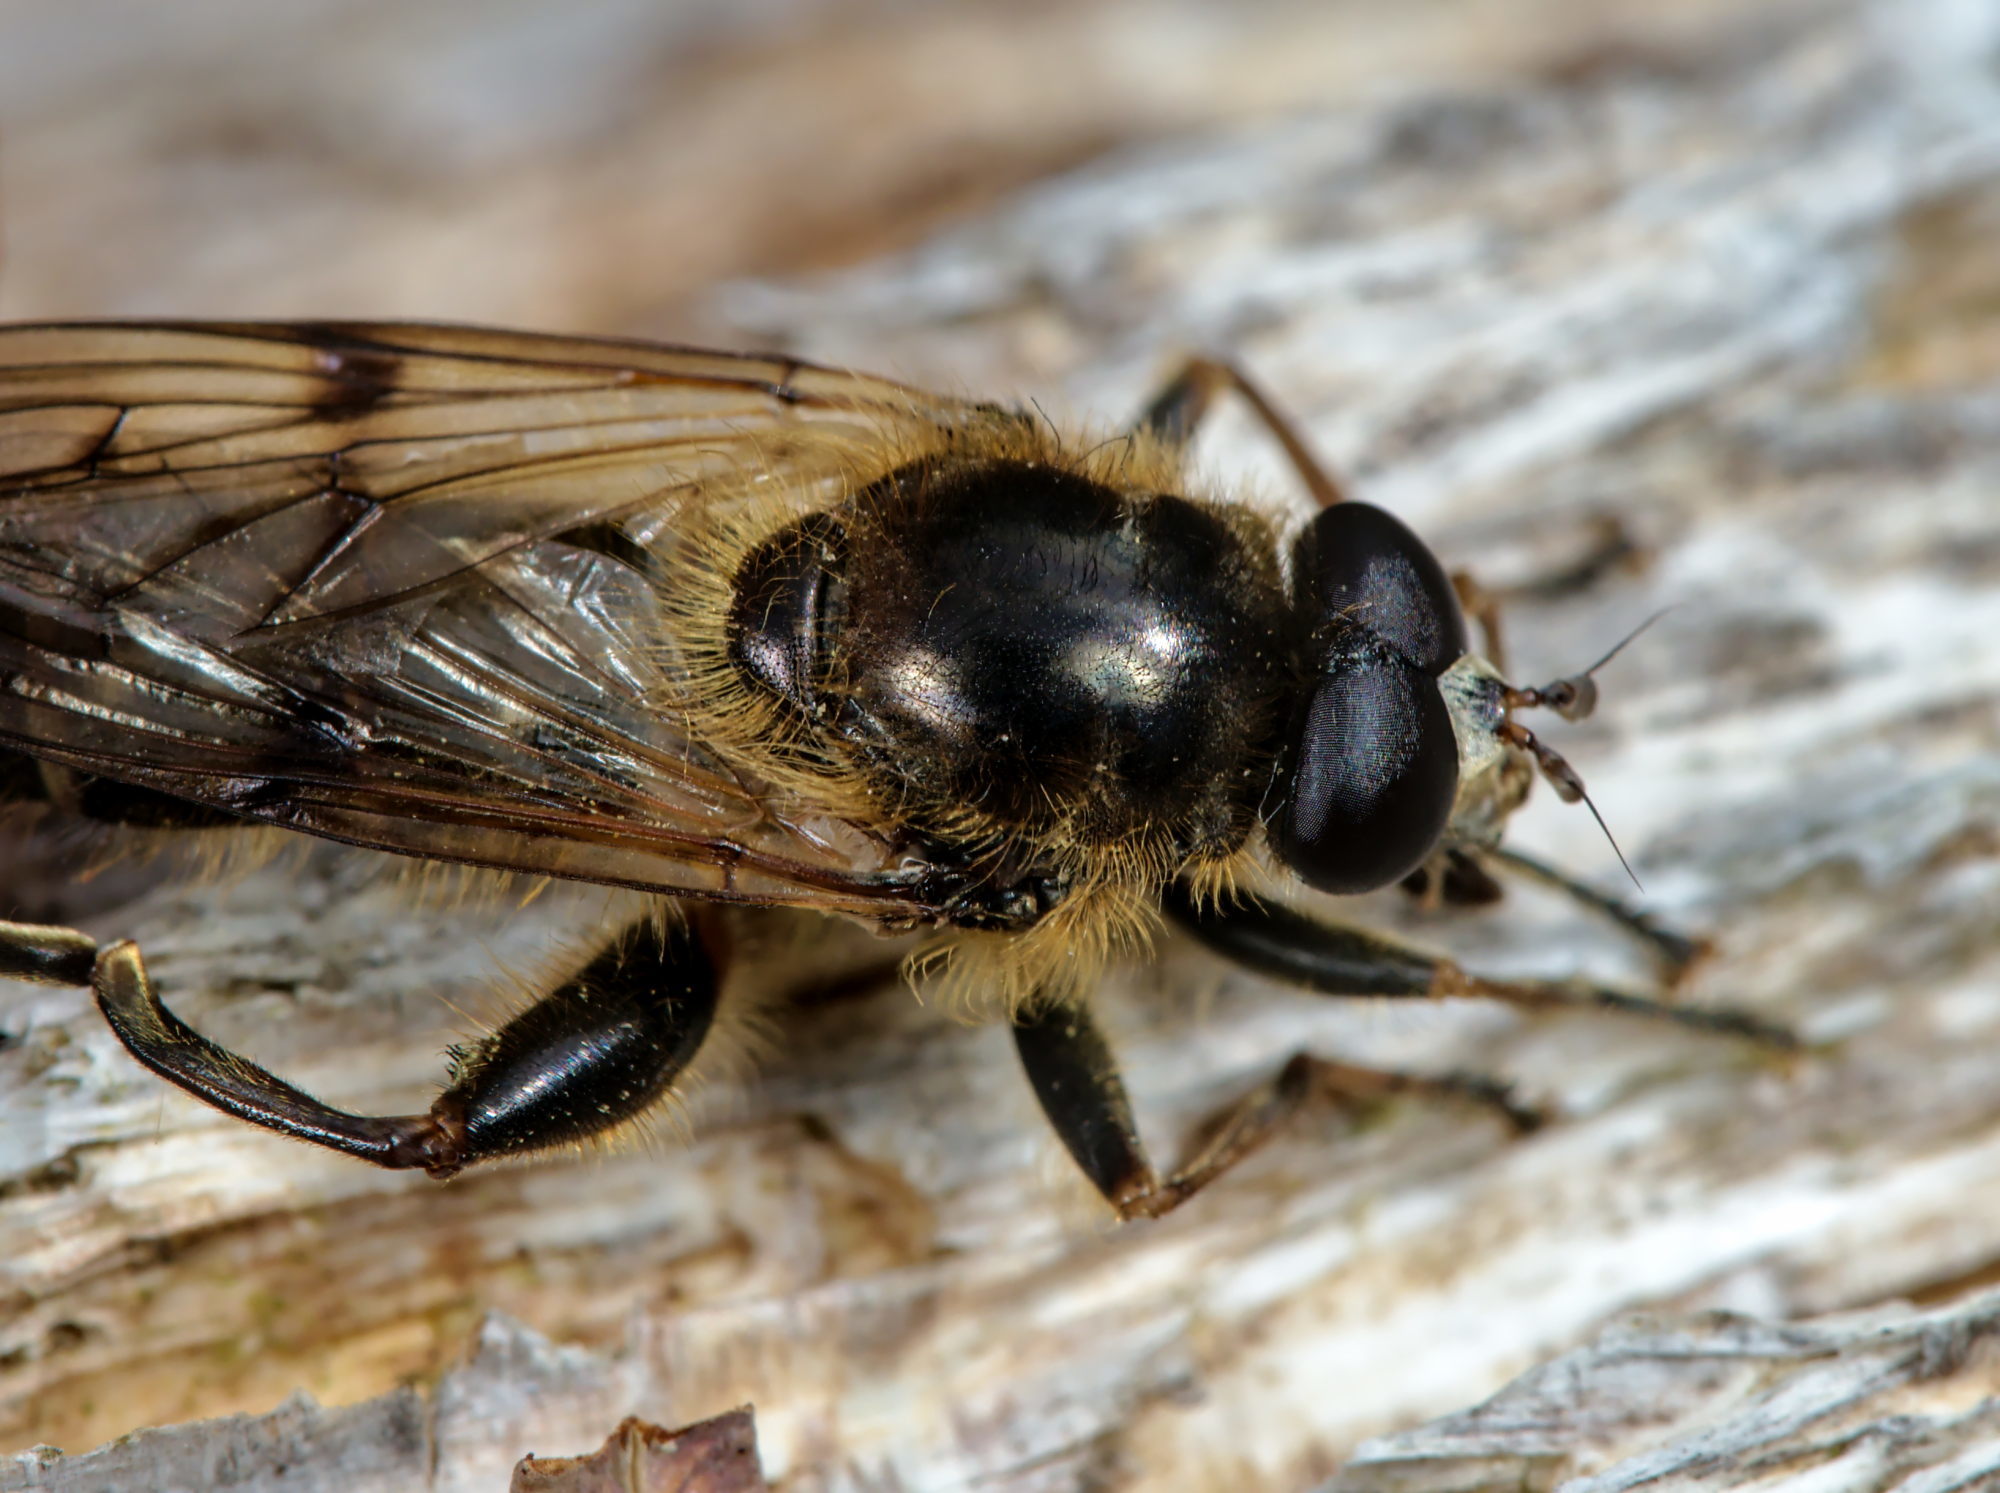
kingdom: Animalia
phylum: Arthropoda
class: Insecta
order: Diptera
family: Syrphidae
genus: Brachypalpus
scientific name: Brachypalpus valgus
